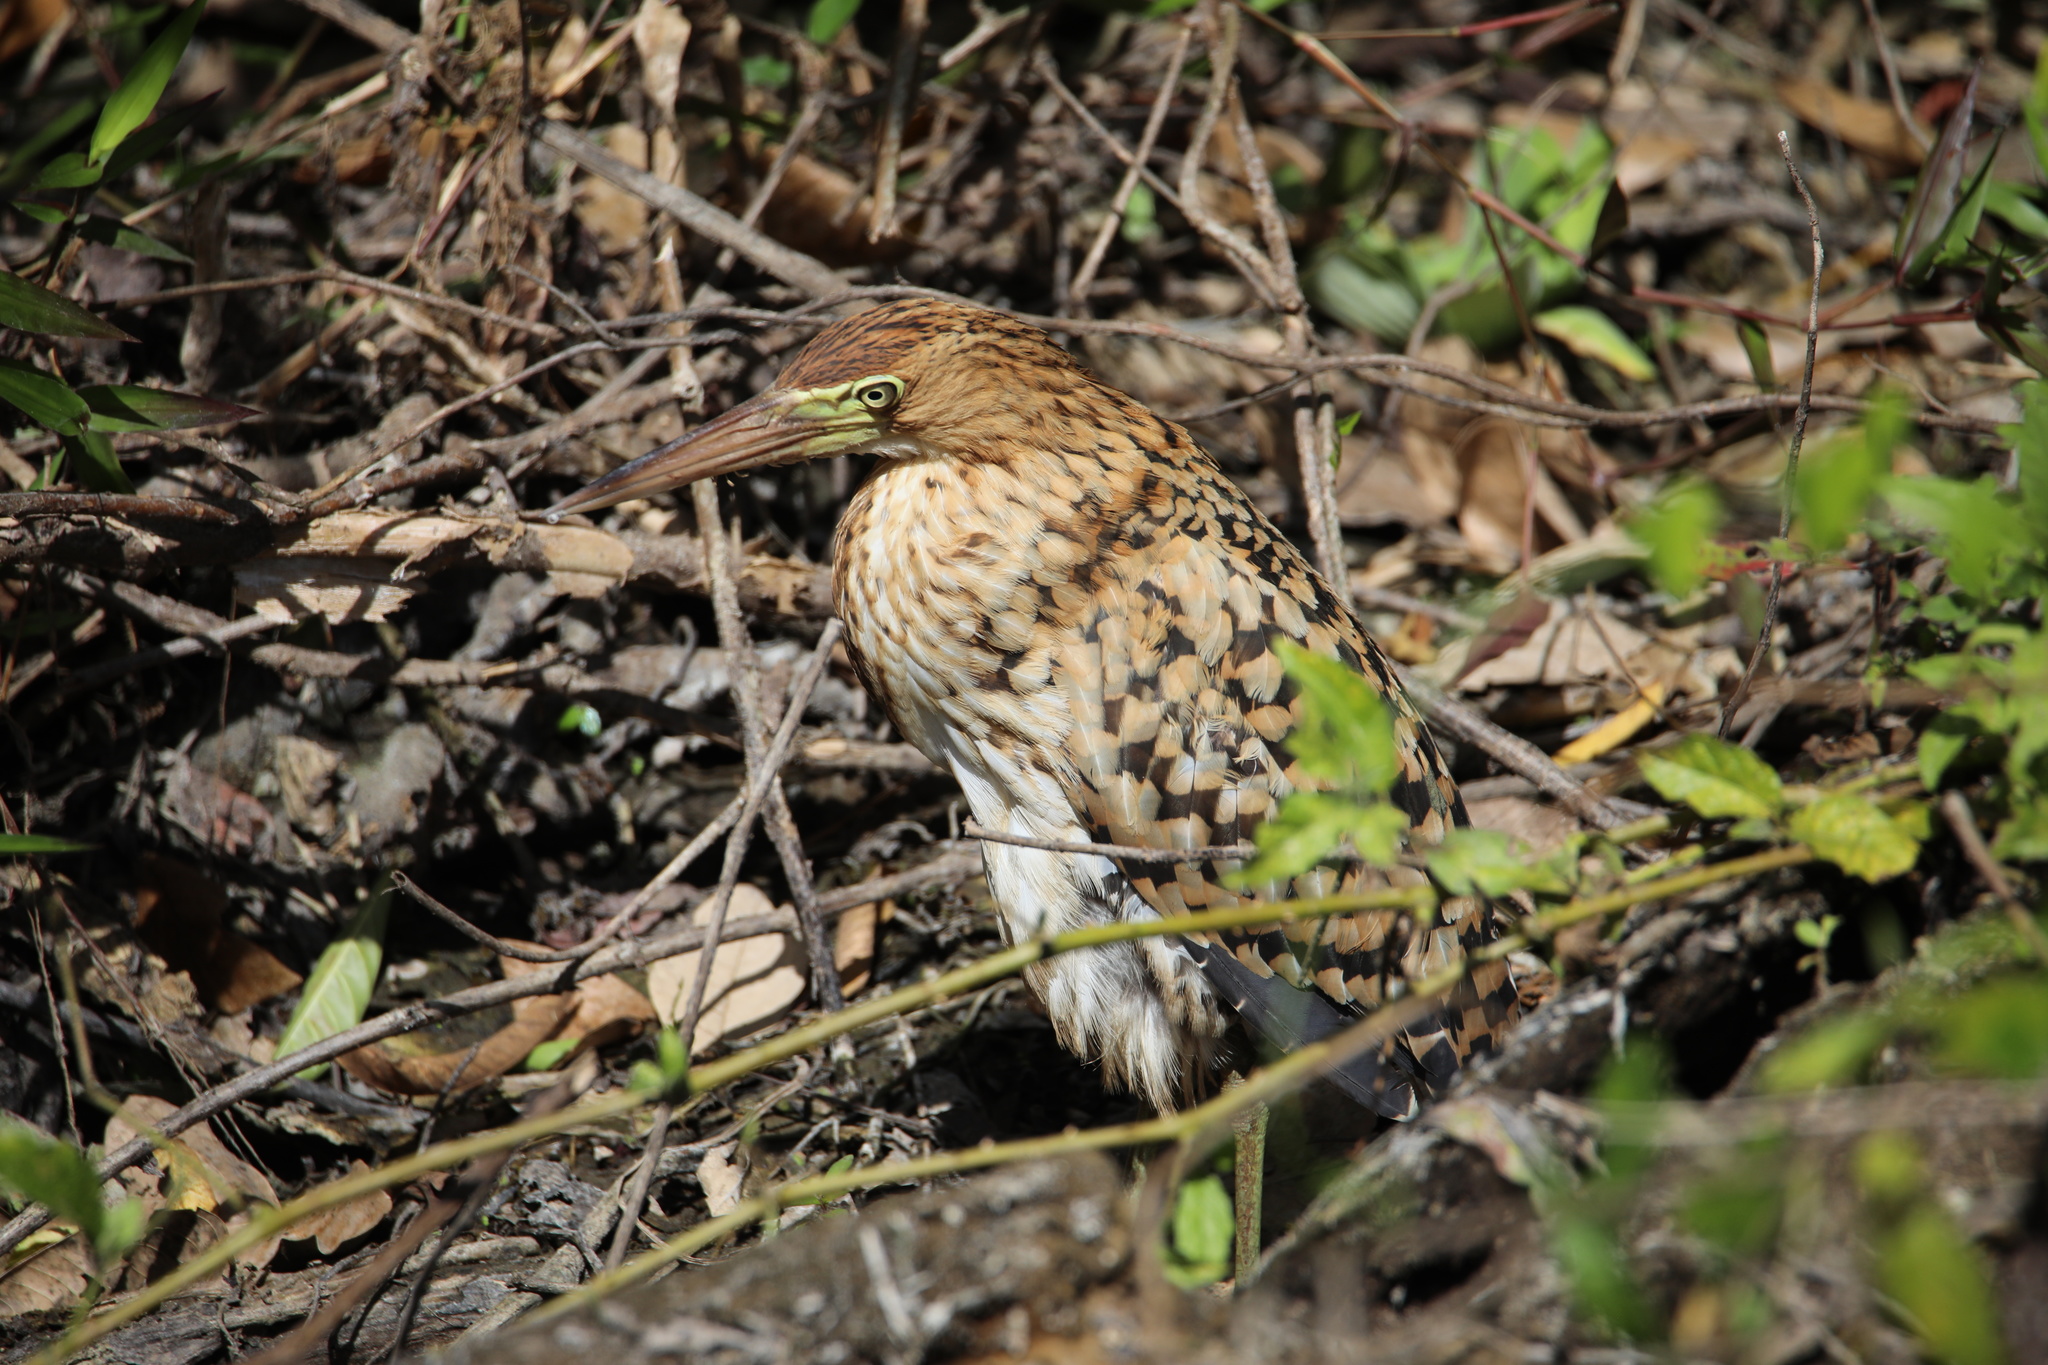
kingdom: Animalia
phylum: Chordata
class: Aves
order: Pelecaniformes
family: Ardeidae
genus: Tigrisoma
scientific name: Tigrisoma lineatum
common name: Rufescent tiger-heron
